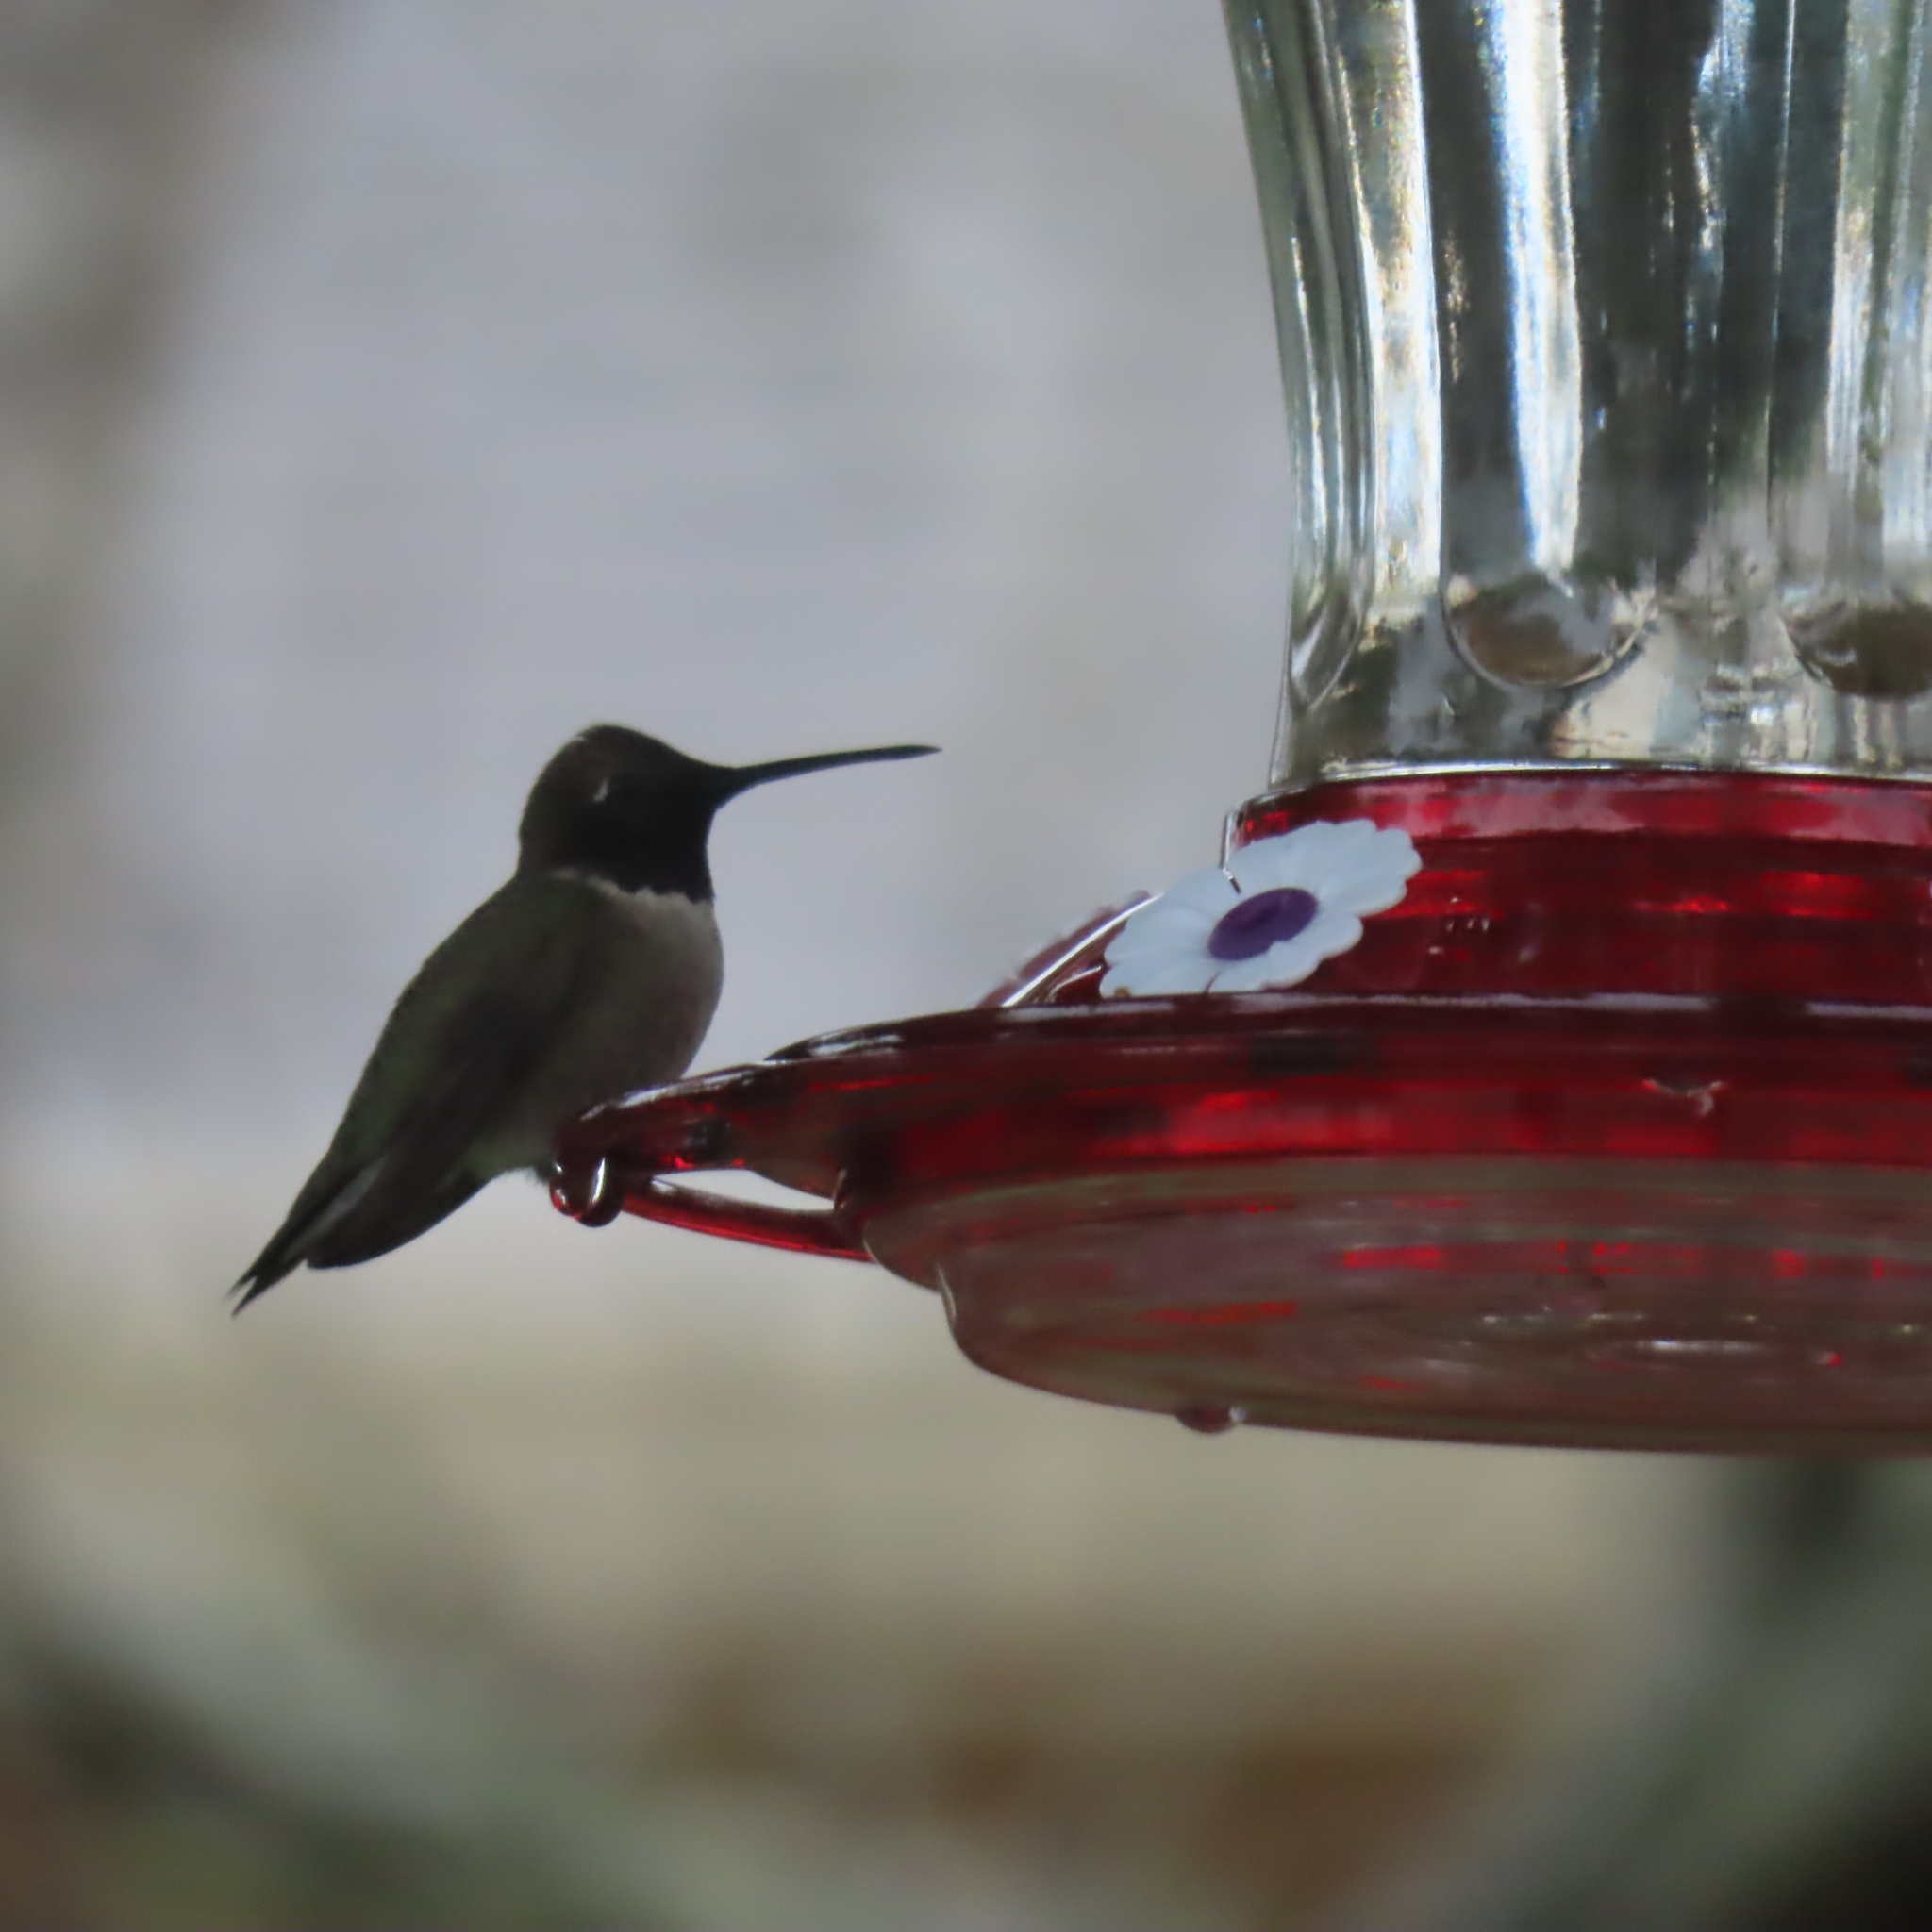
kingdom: Animalia
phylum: Chordata
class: Aves
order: Apodiformes
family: Trochilidae
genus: Archilochus
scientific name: Archilochus alexandri
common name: Black-chinned hummingbird
